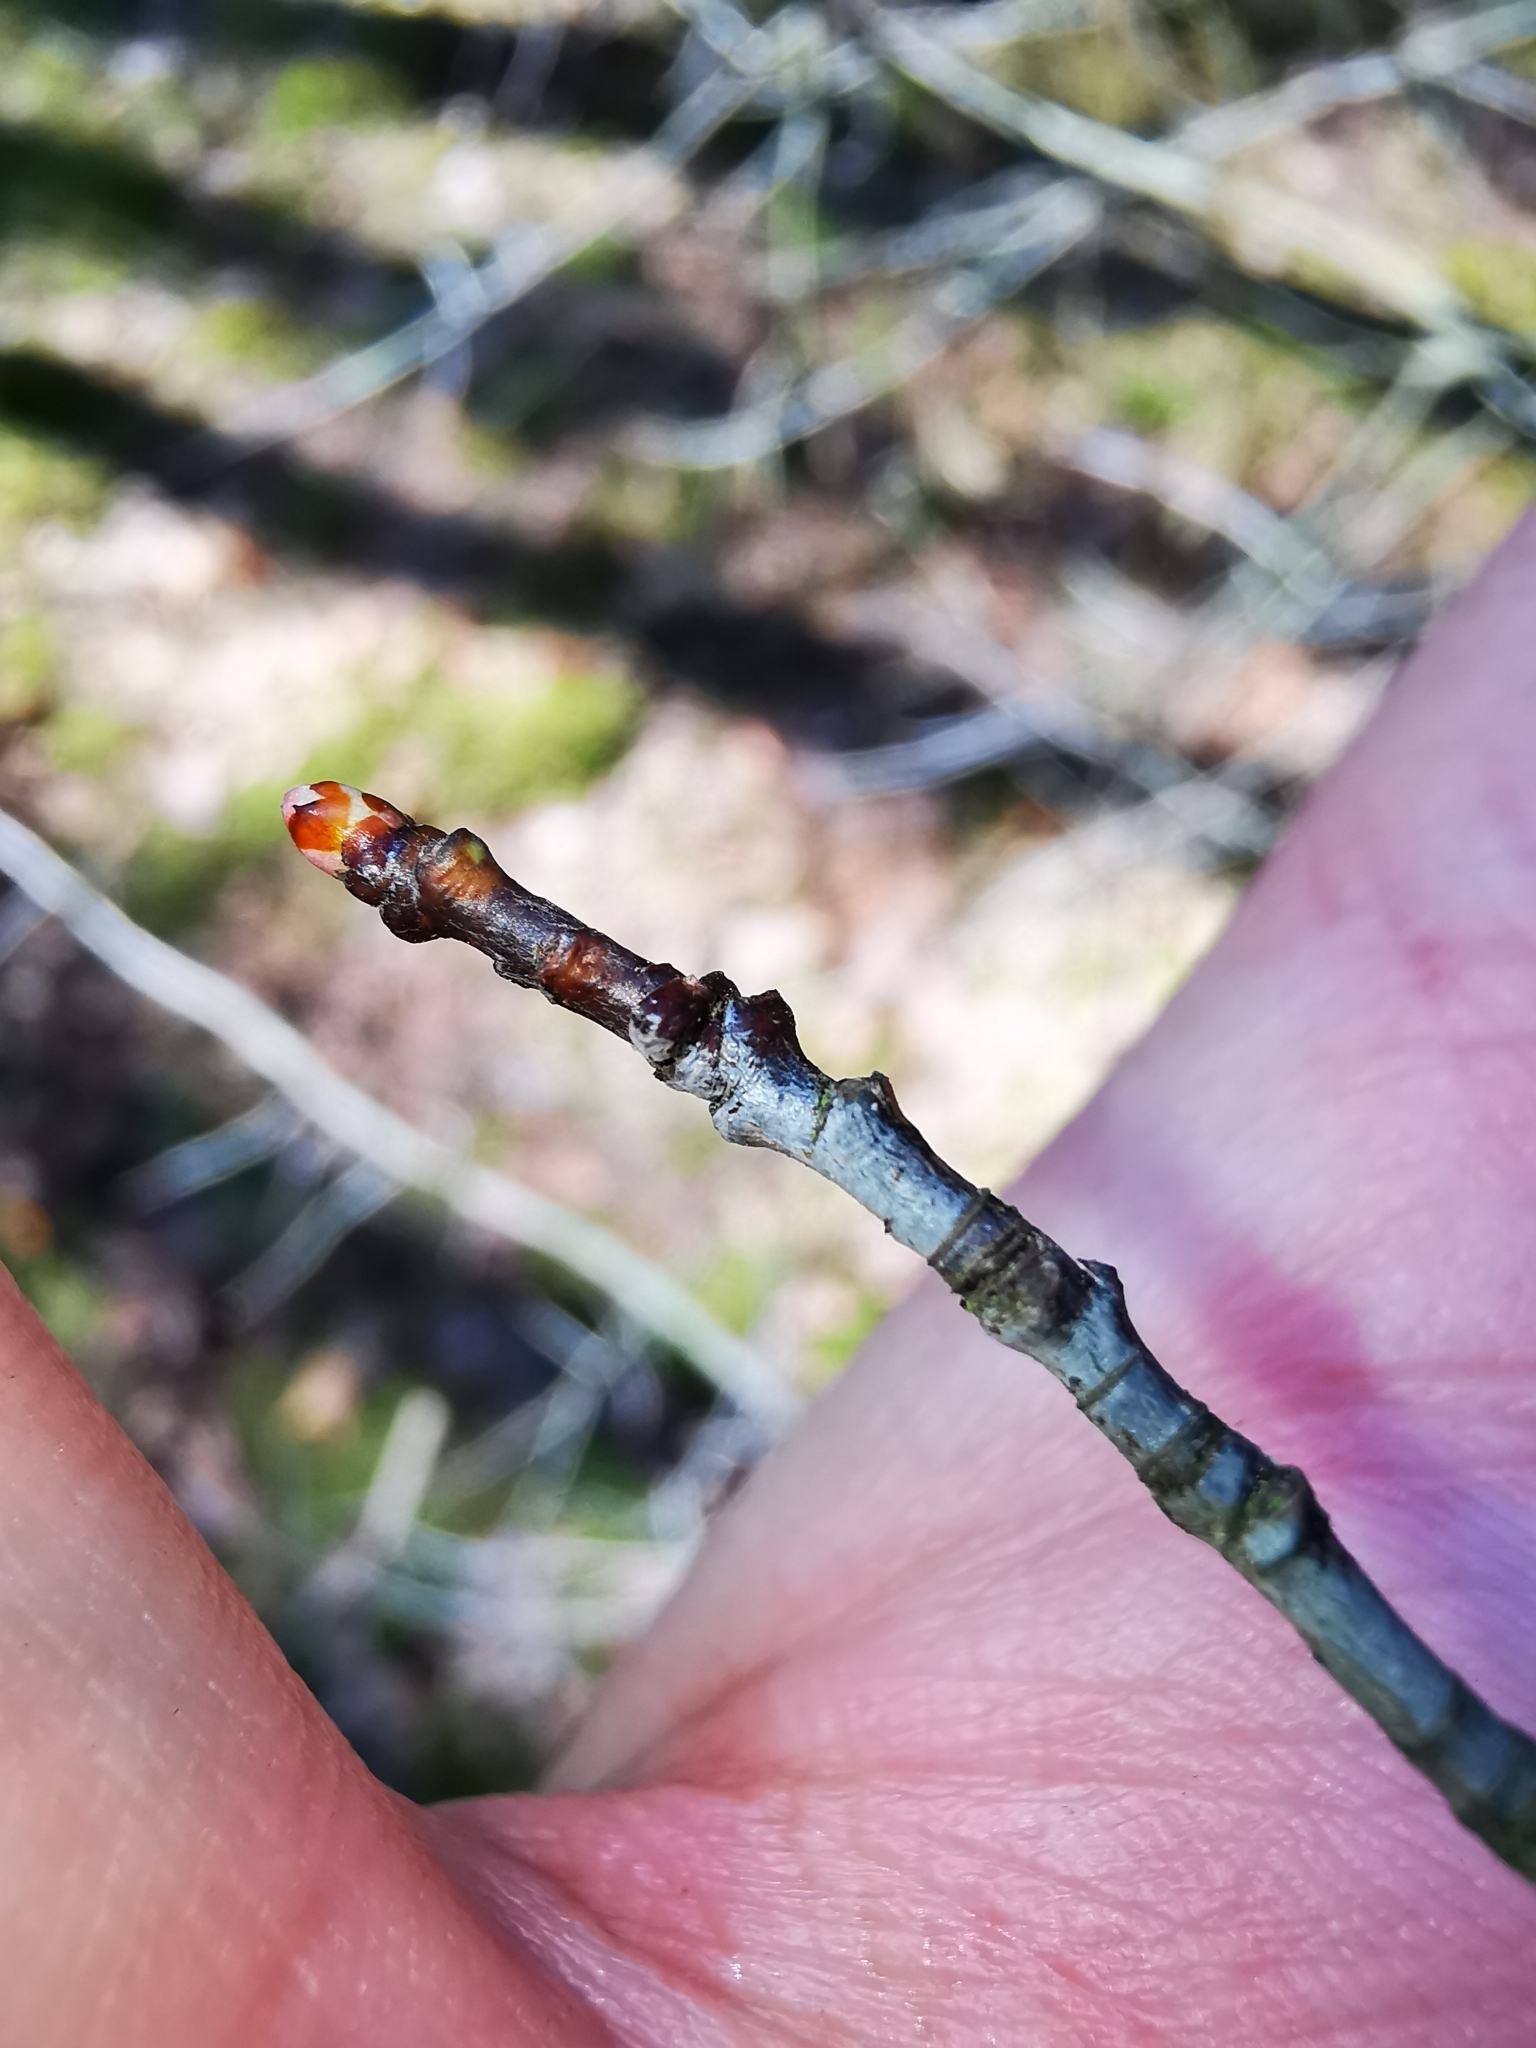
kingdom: Plantae
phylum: Tracheophyta
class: Magnoliopsida
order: Rosales
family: Rosaceae
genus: Prunus
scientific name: Prunus serotina
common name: Black cherry
